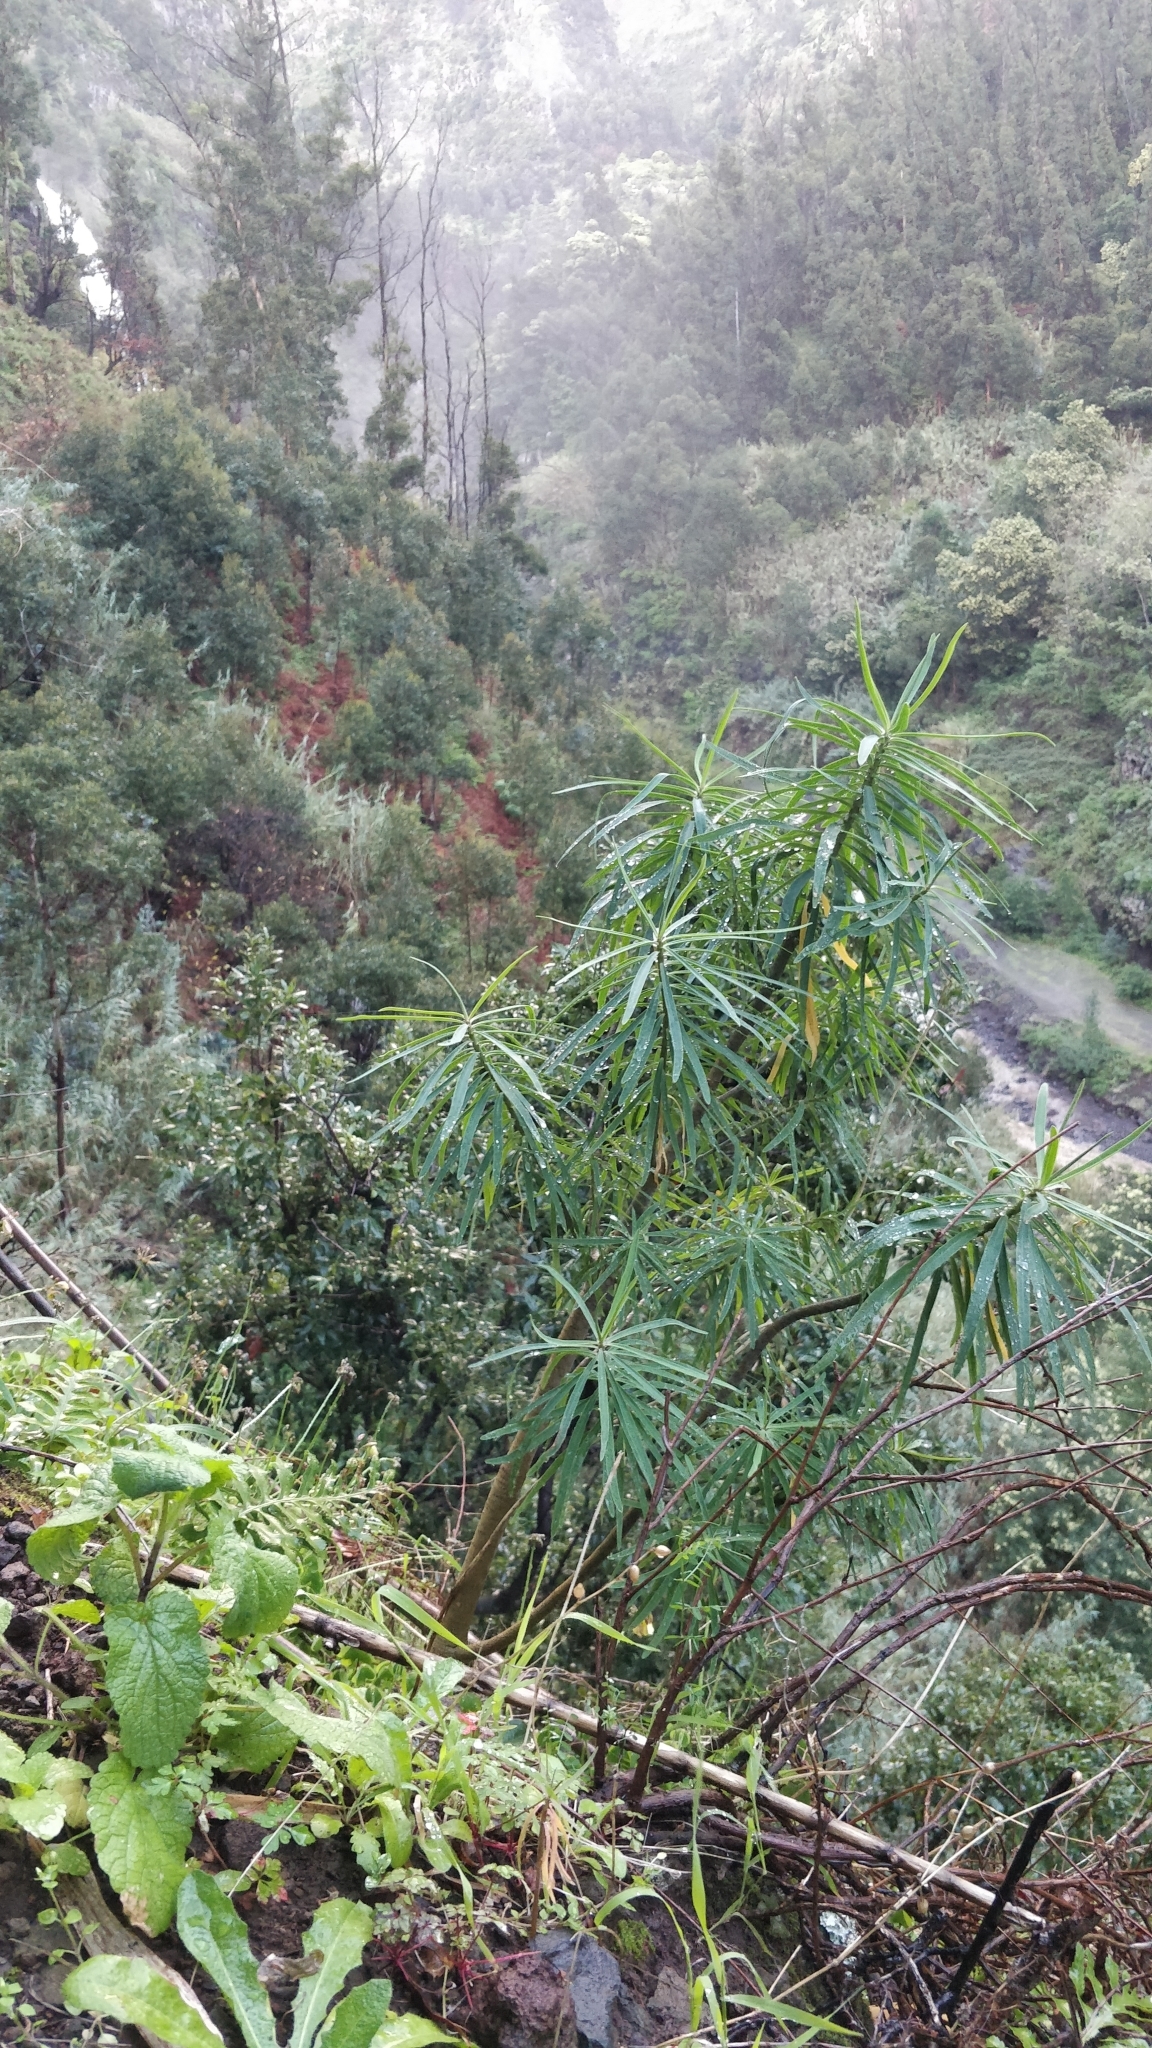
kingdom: Plantae
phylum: Tracheophyta
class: Magnoliopsida
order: Malpighiales
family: Euphorbiaceae
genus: Euphorbia
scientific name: Euphorbia piscatoria
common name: Fish-stunning spurge
